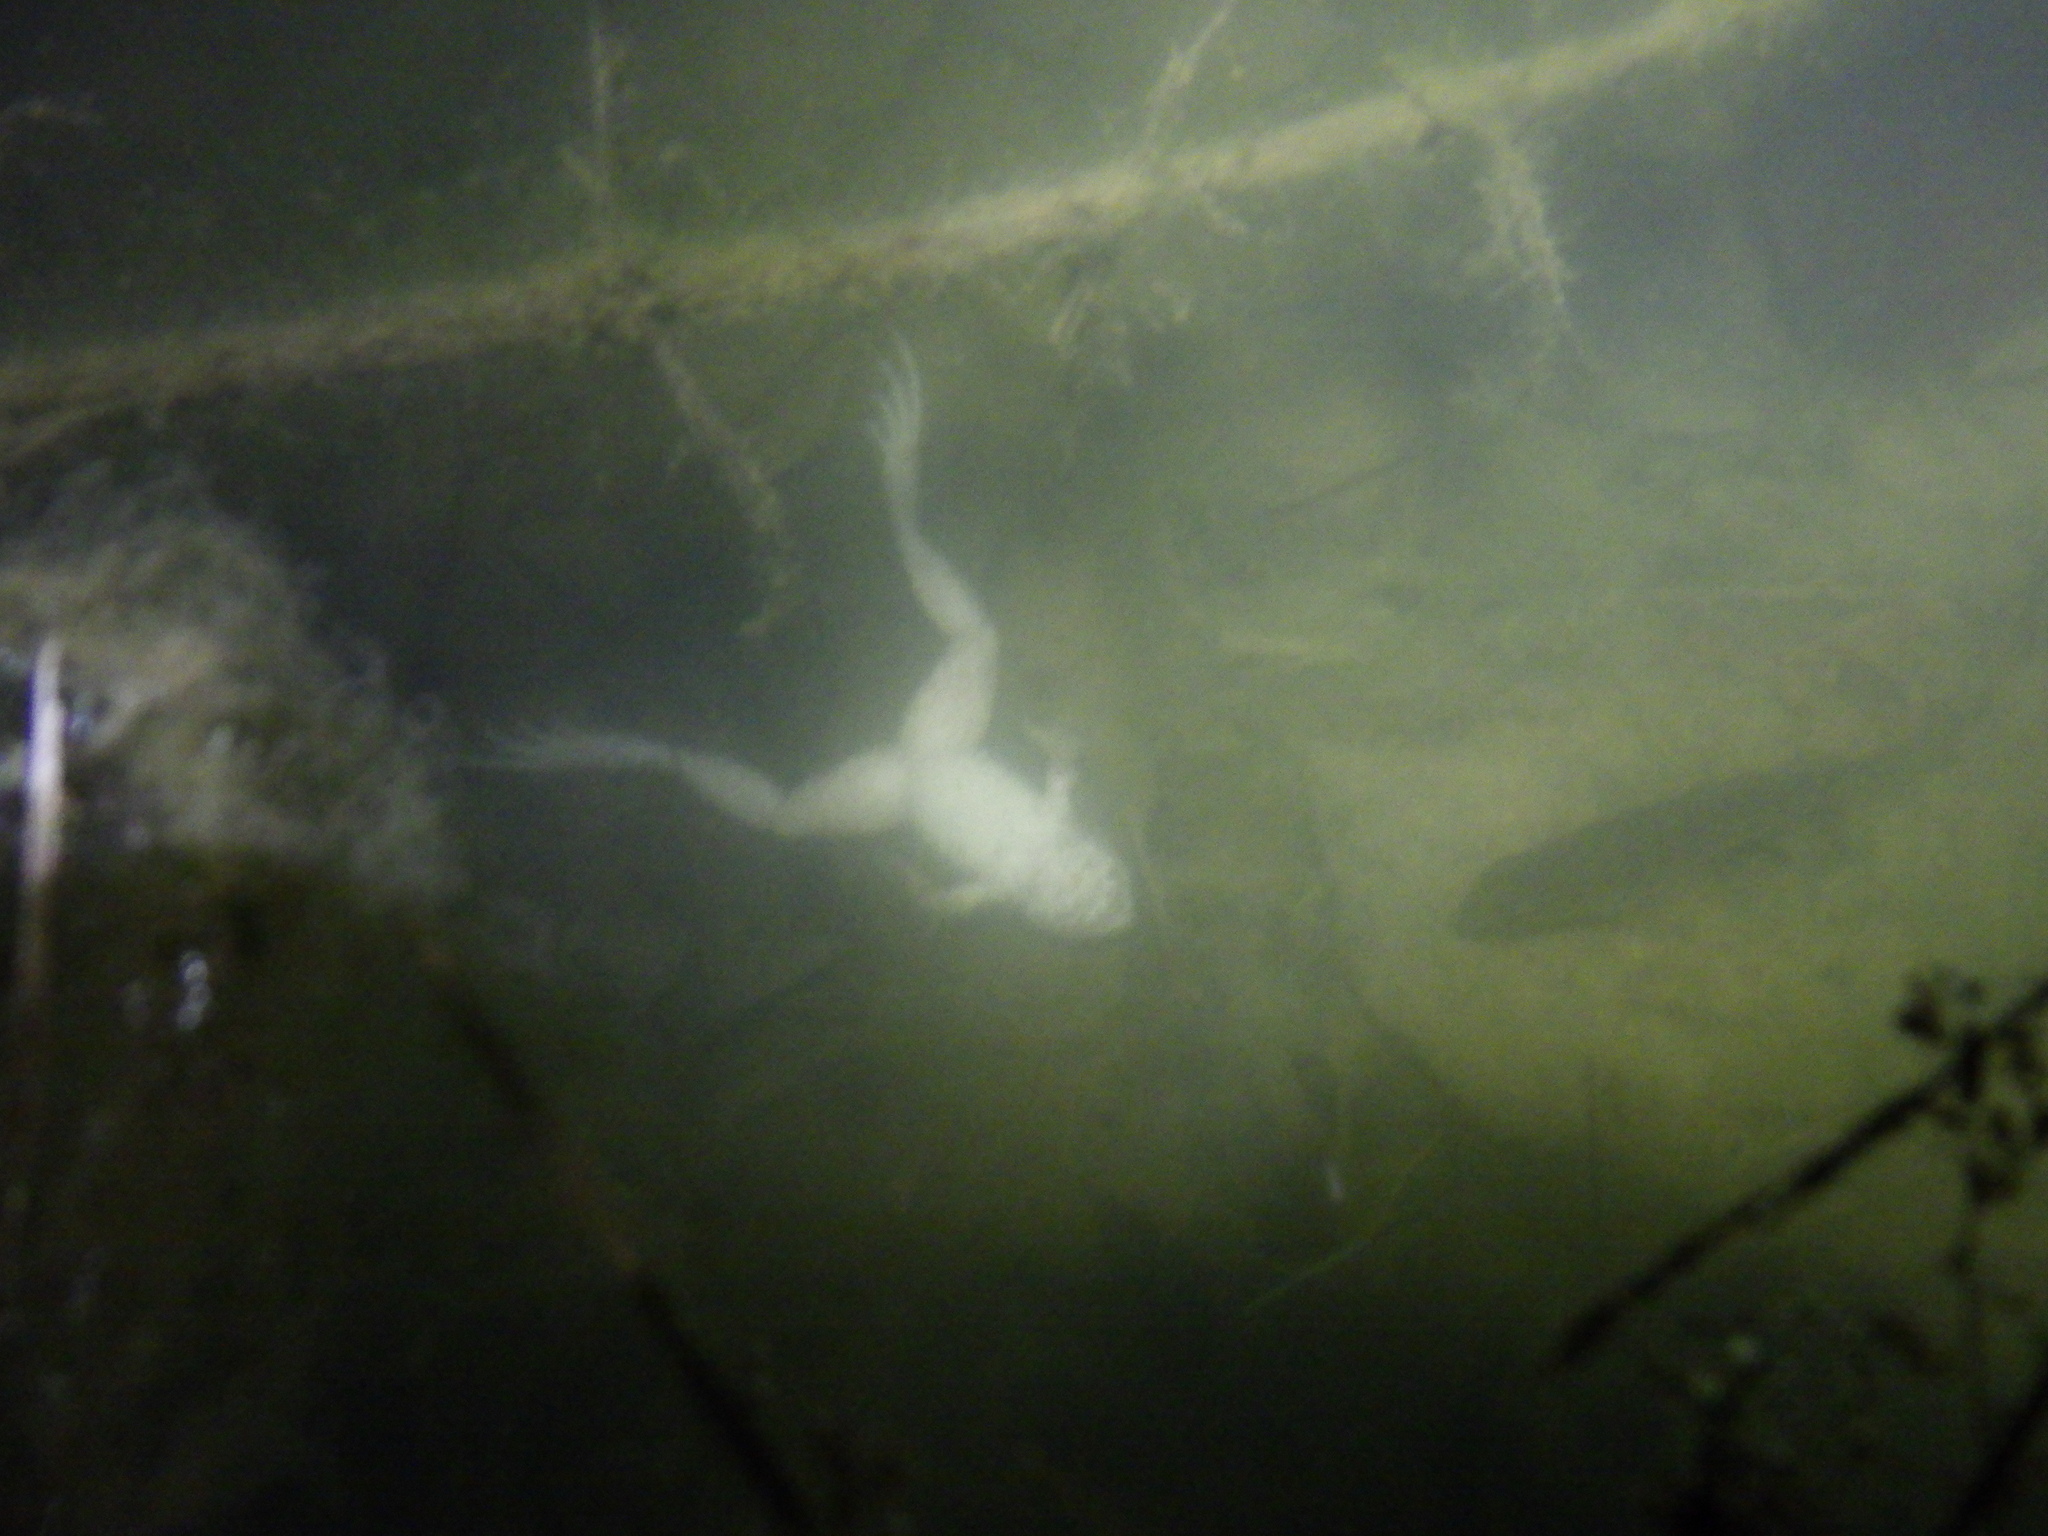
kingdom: Animalia
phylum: Chordata
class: Amphibia
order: Anura
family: Ranidae
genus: Lithobates
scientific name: Lithobates catesbeianus
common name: American bullfrog
